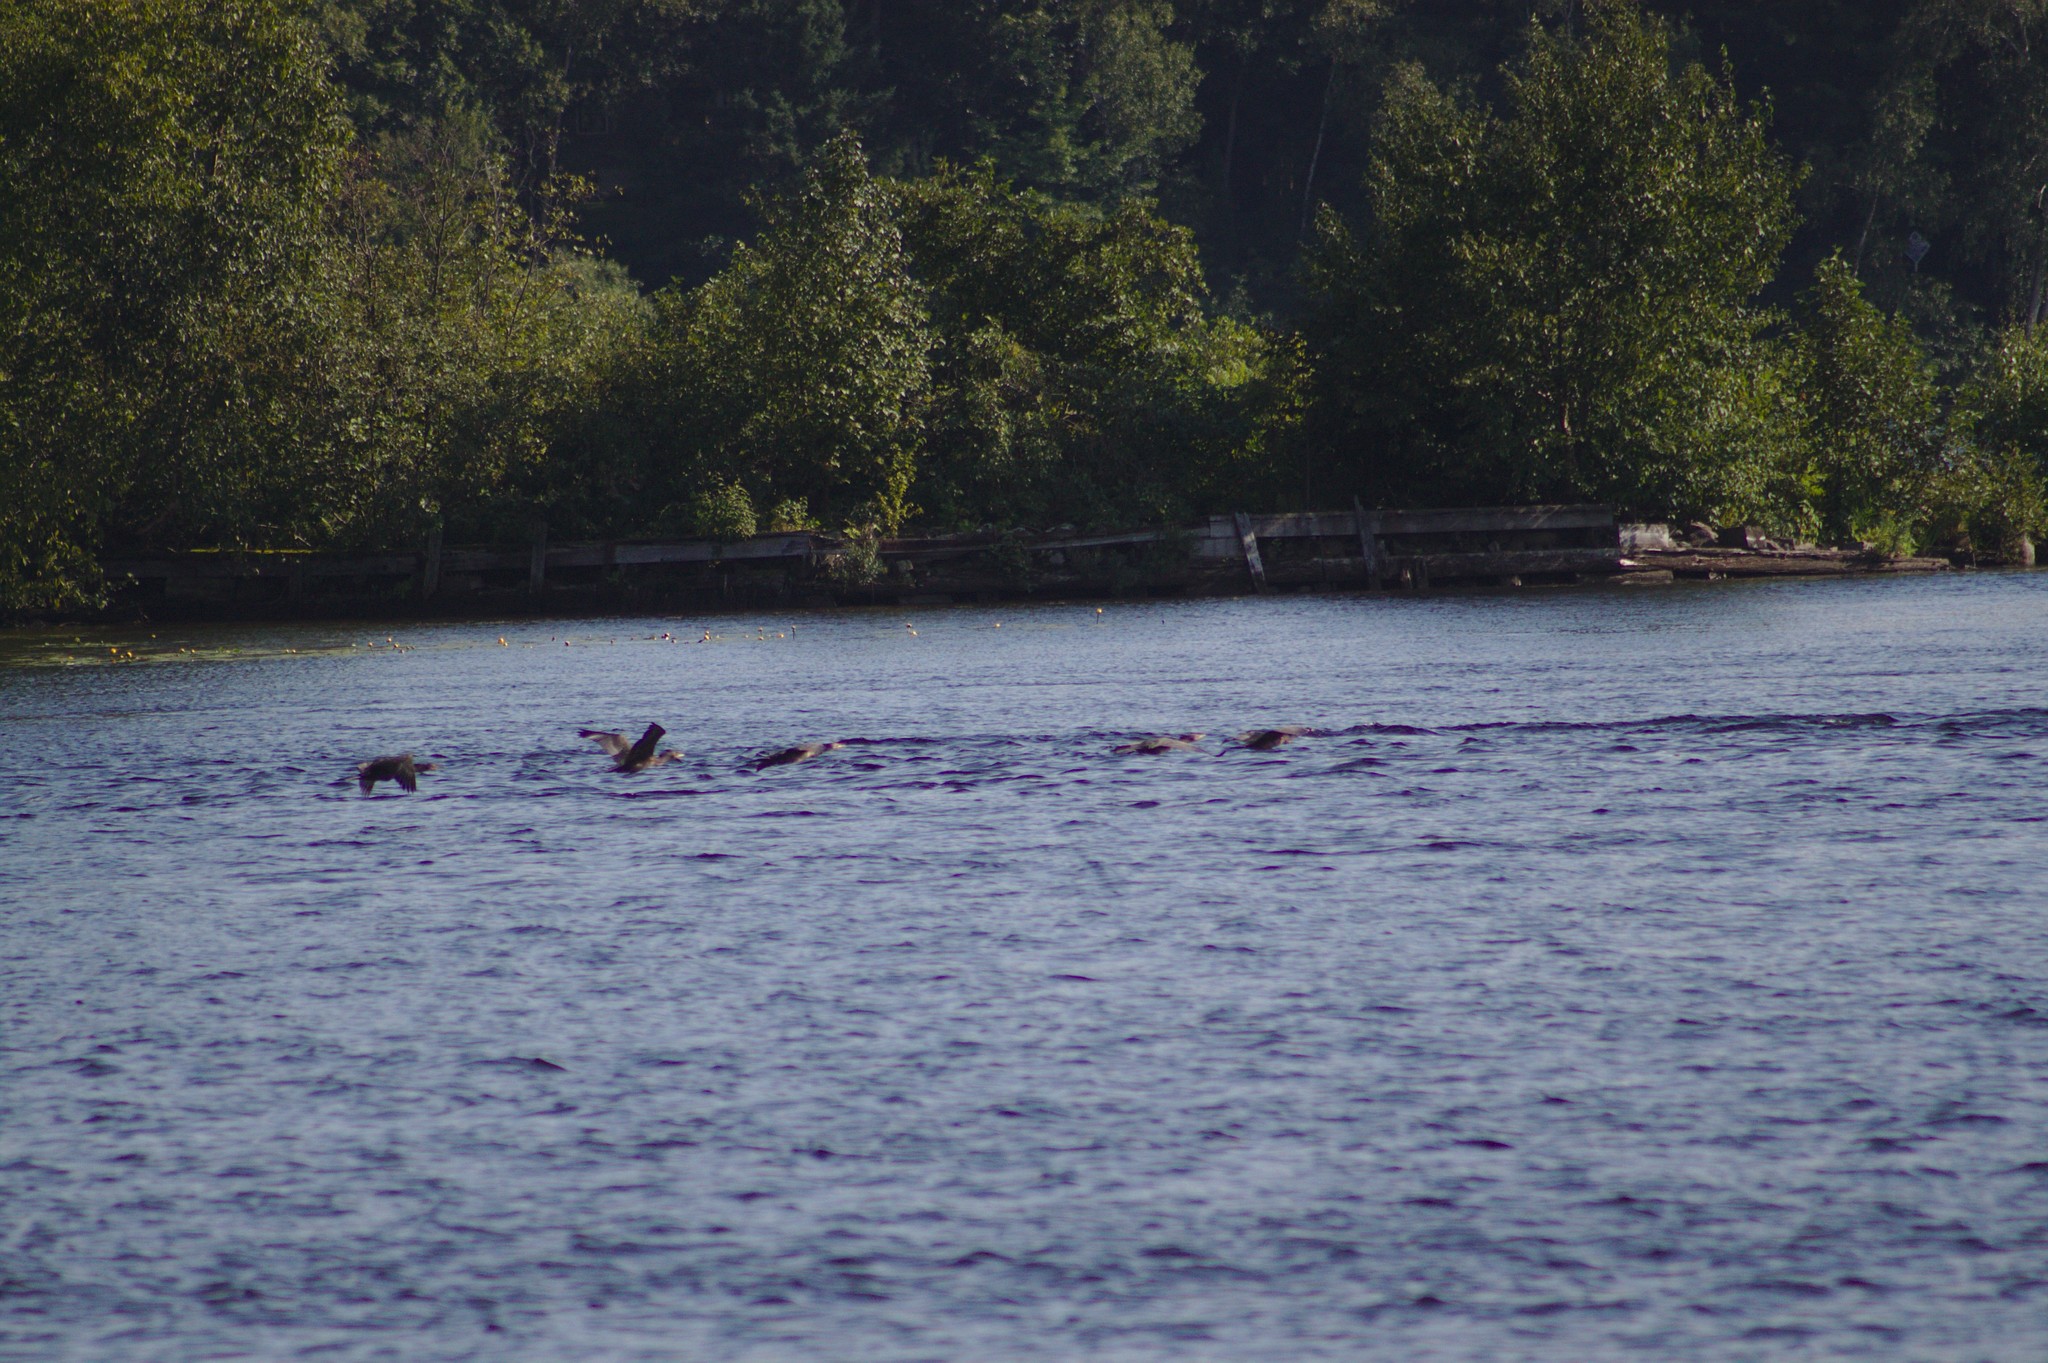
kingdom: Animalia
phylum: Chordata
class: Aves
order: Suliformes
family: Phalacrocoracidae
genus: Phalacrocorax
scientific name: Phalacrocorax auritus
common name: Double-crested cormorant
